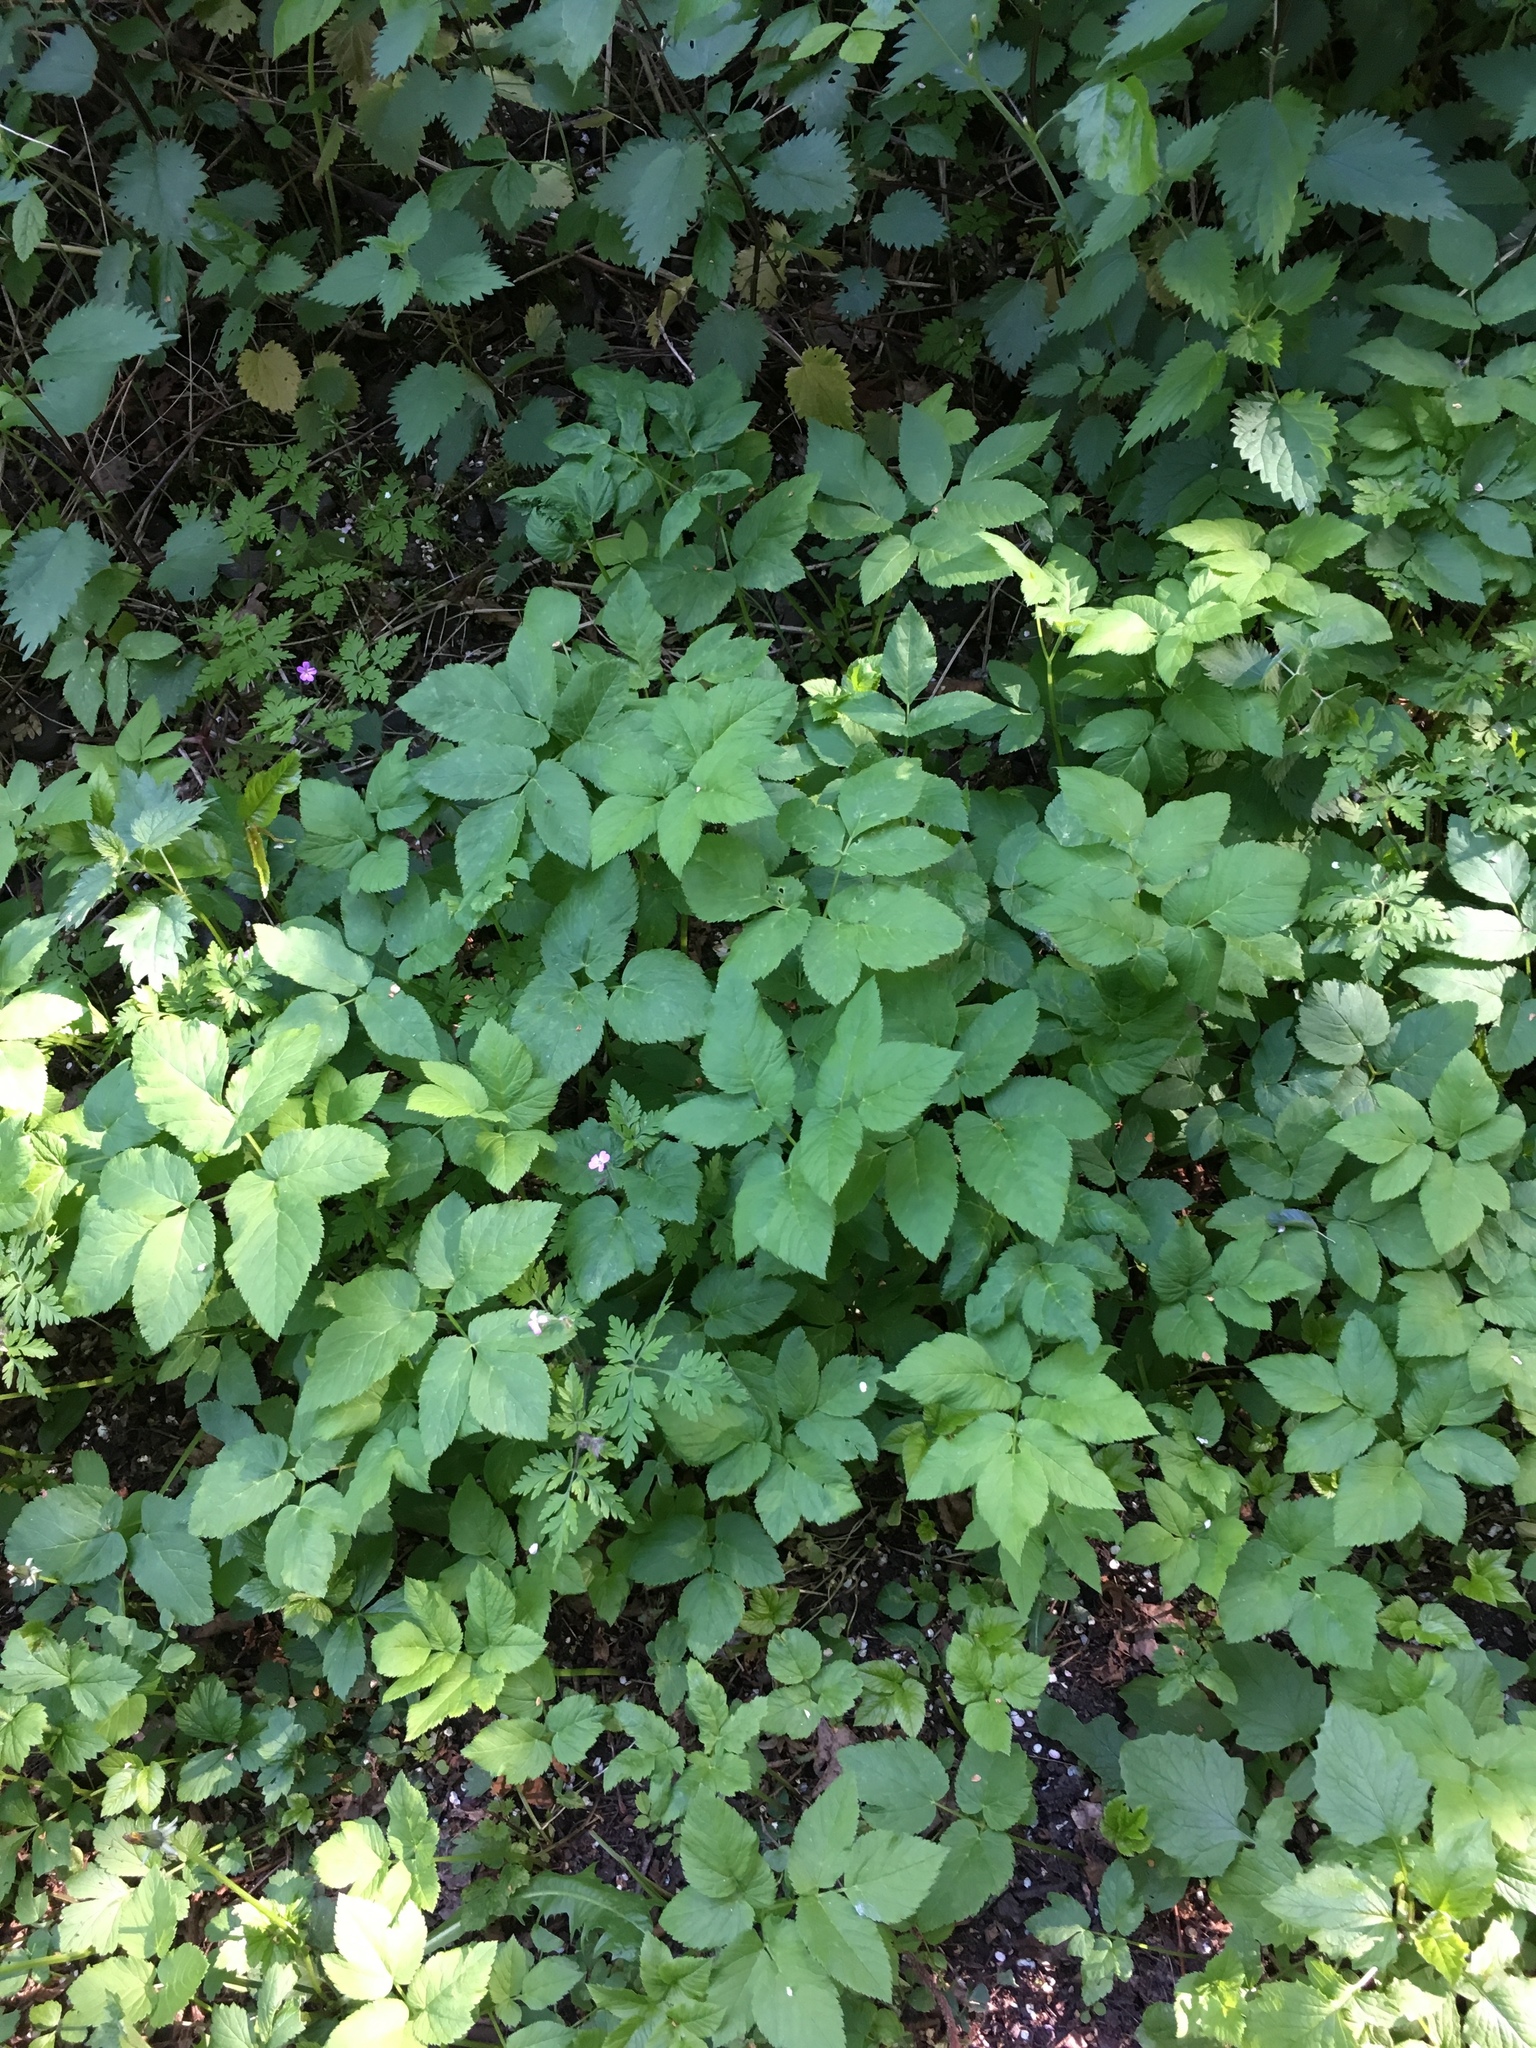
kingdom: Plantae
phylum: Tracheophyta
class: Magnoliopsida
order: Apiales
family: Apiaceae
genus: Aegopodium
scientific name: Aegopodium podagraria
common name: Ground-elder
